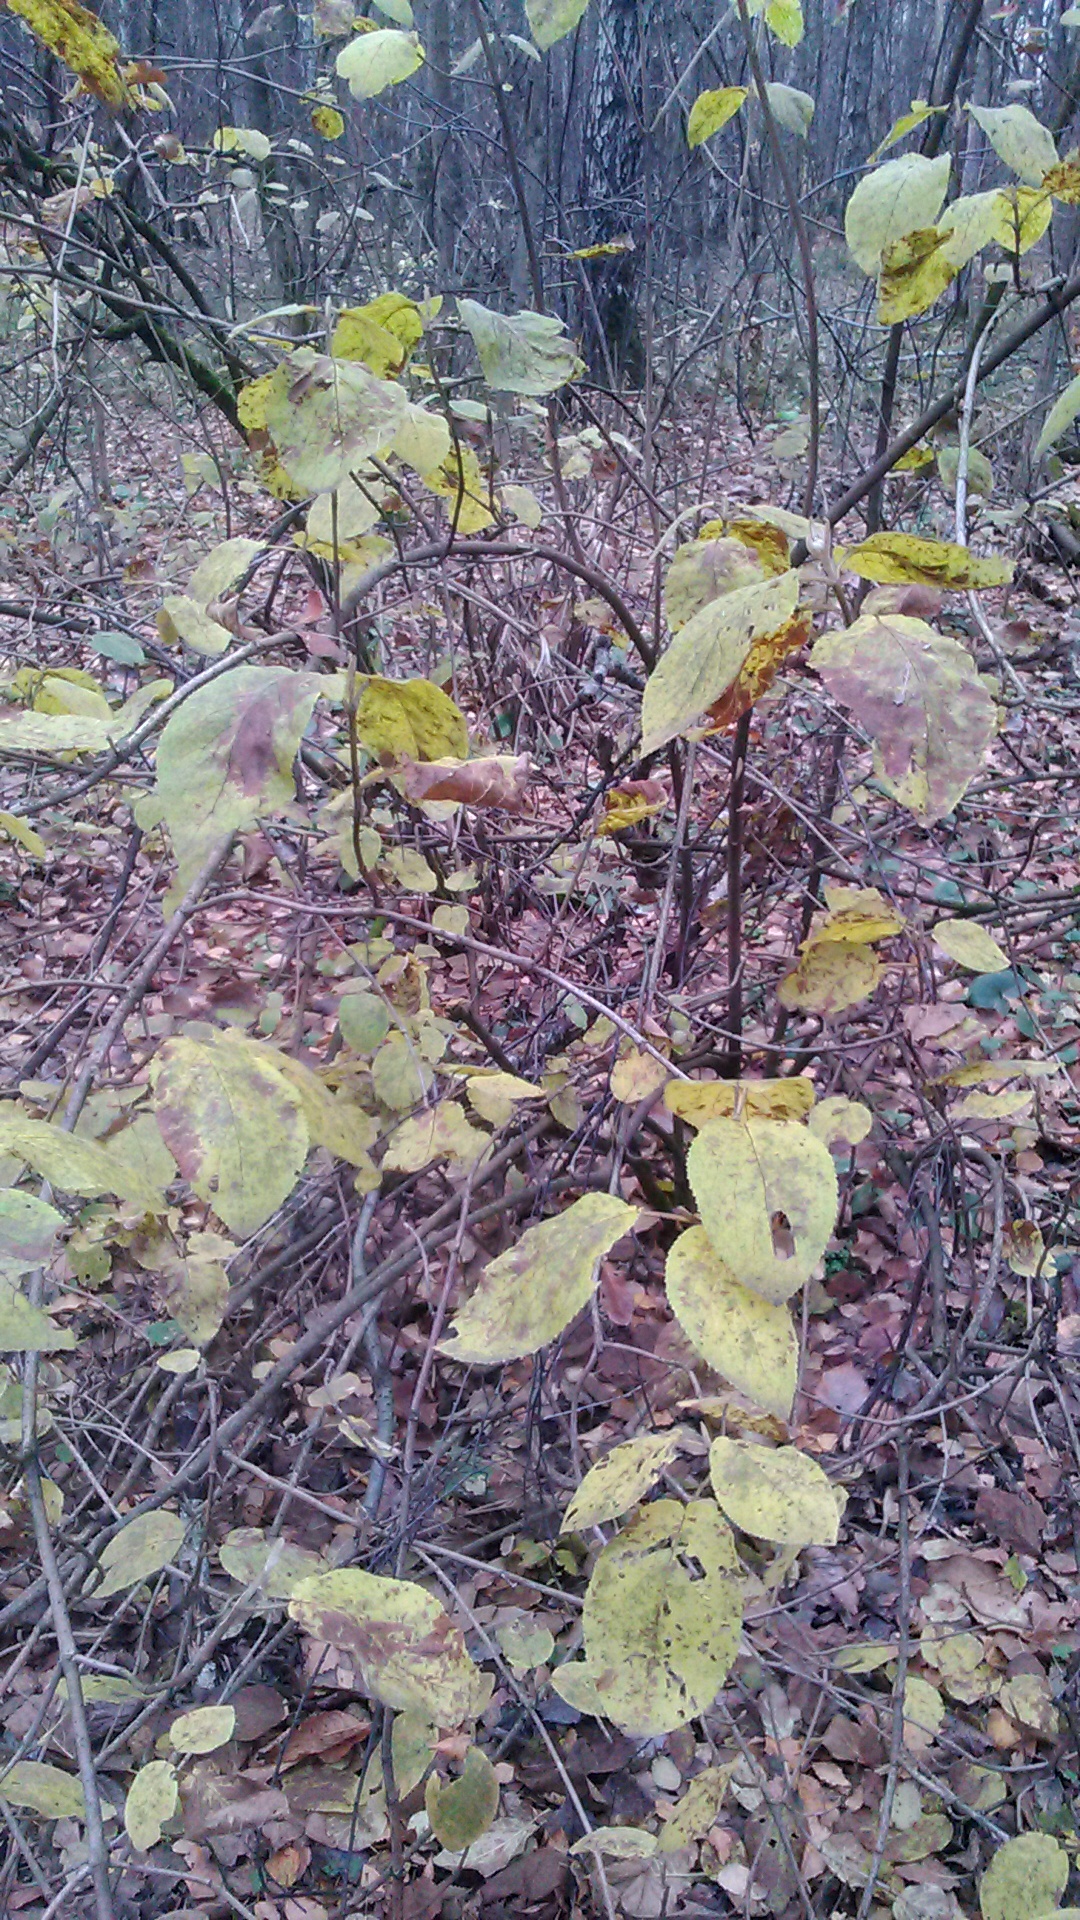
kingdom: Plantae
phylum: Tracheophyta
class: Magnoliopsida
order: Dipsacales
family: Viburnaceae
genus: Viburnum
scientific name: Viburnum lantana
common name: Wayfaring tree
